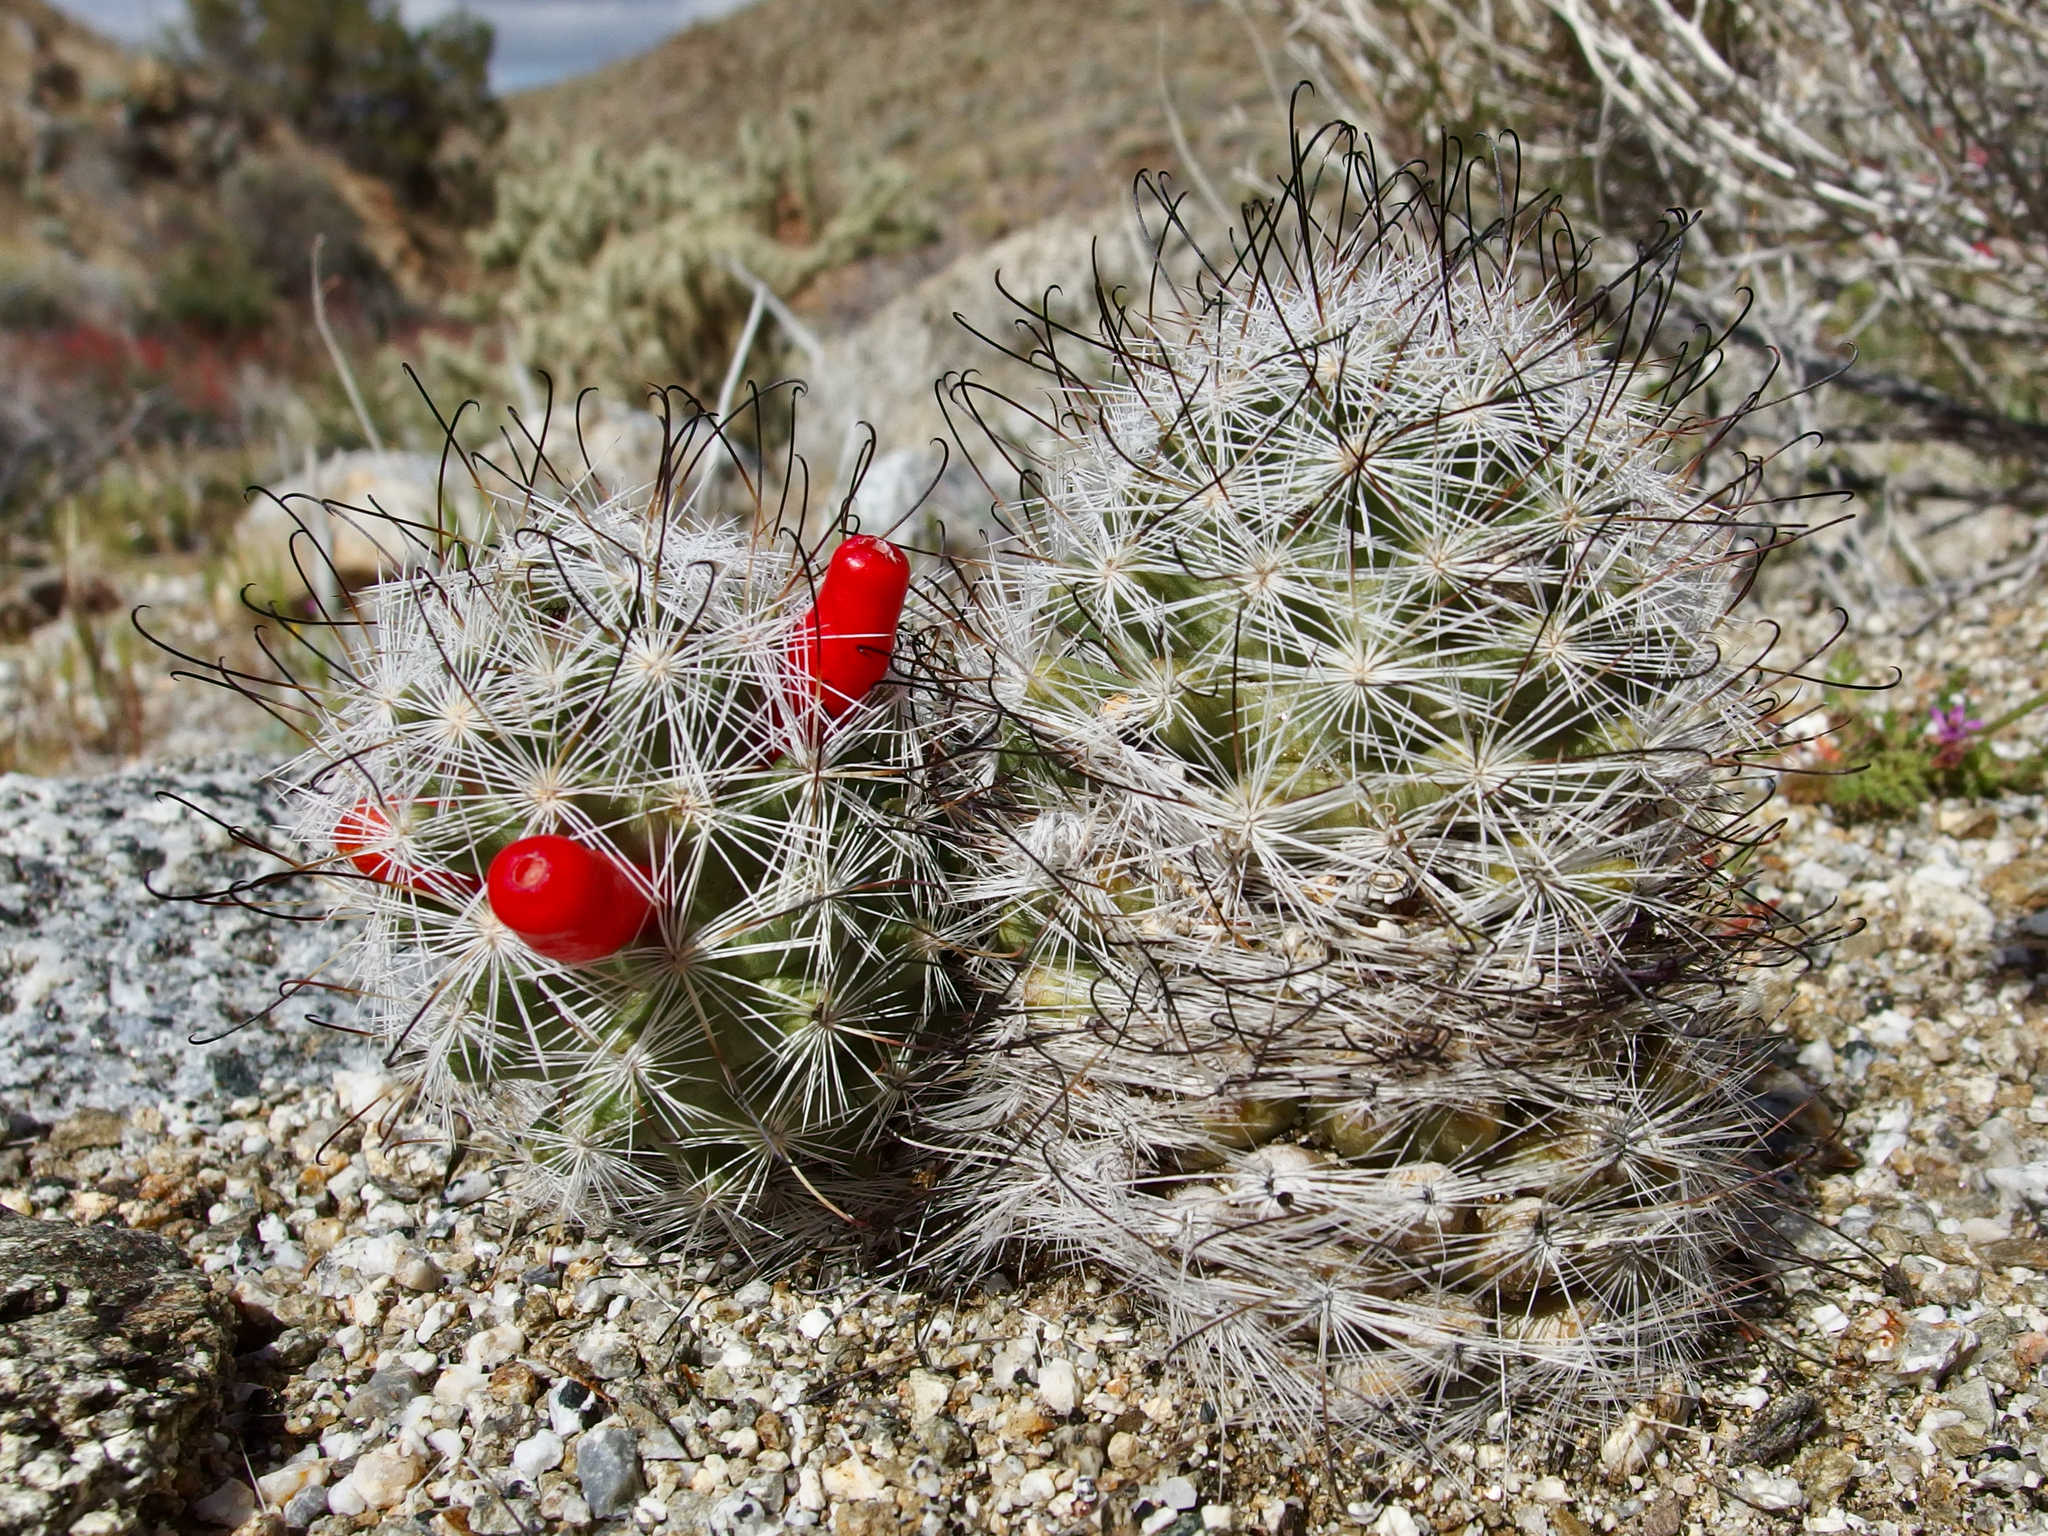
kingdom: Plantae
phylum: Tracheophyta
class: Magnoliopsida
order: Caryophyllales
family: Cactaceae
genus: Cochemiea
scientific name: Cochemiea tetrancistra
